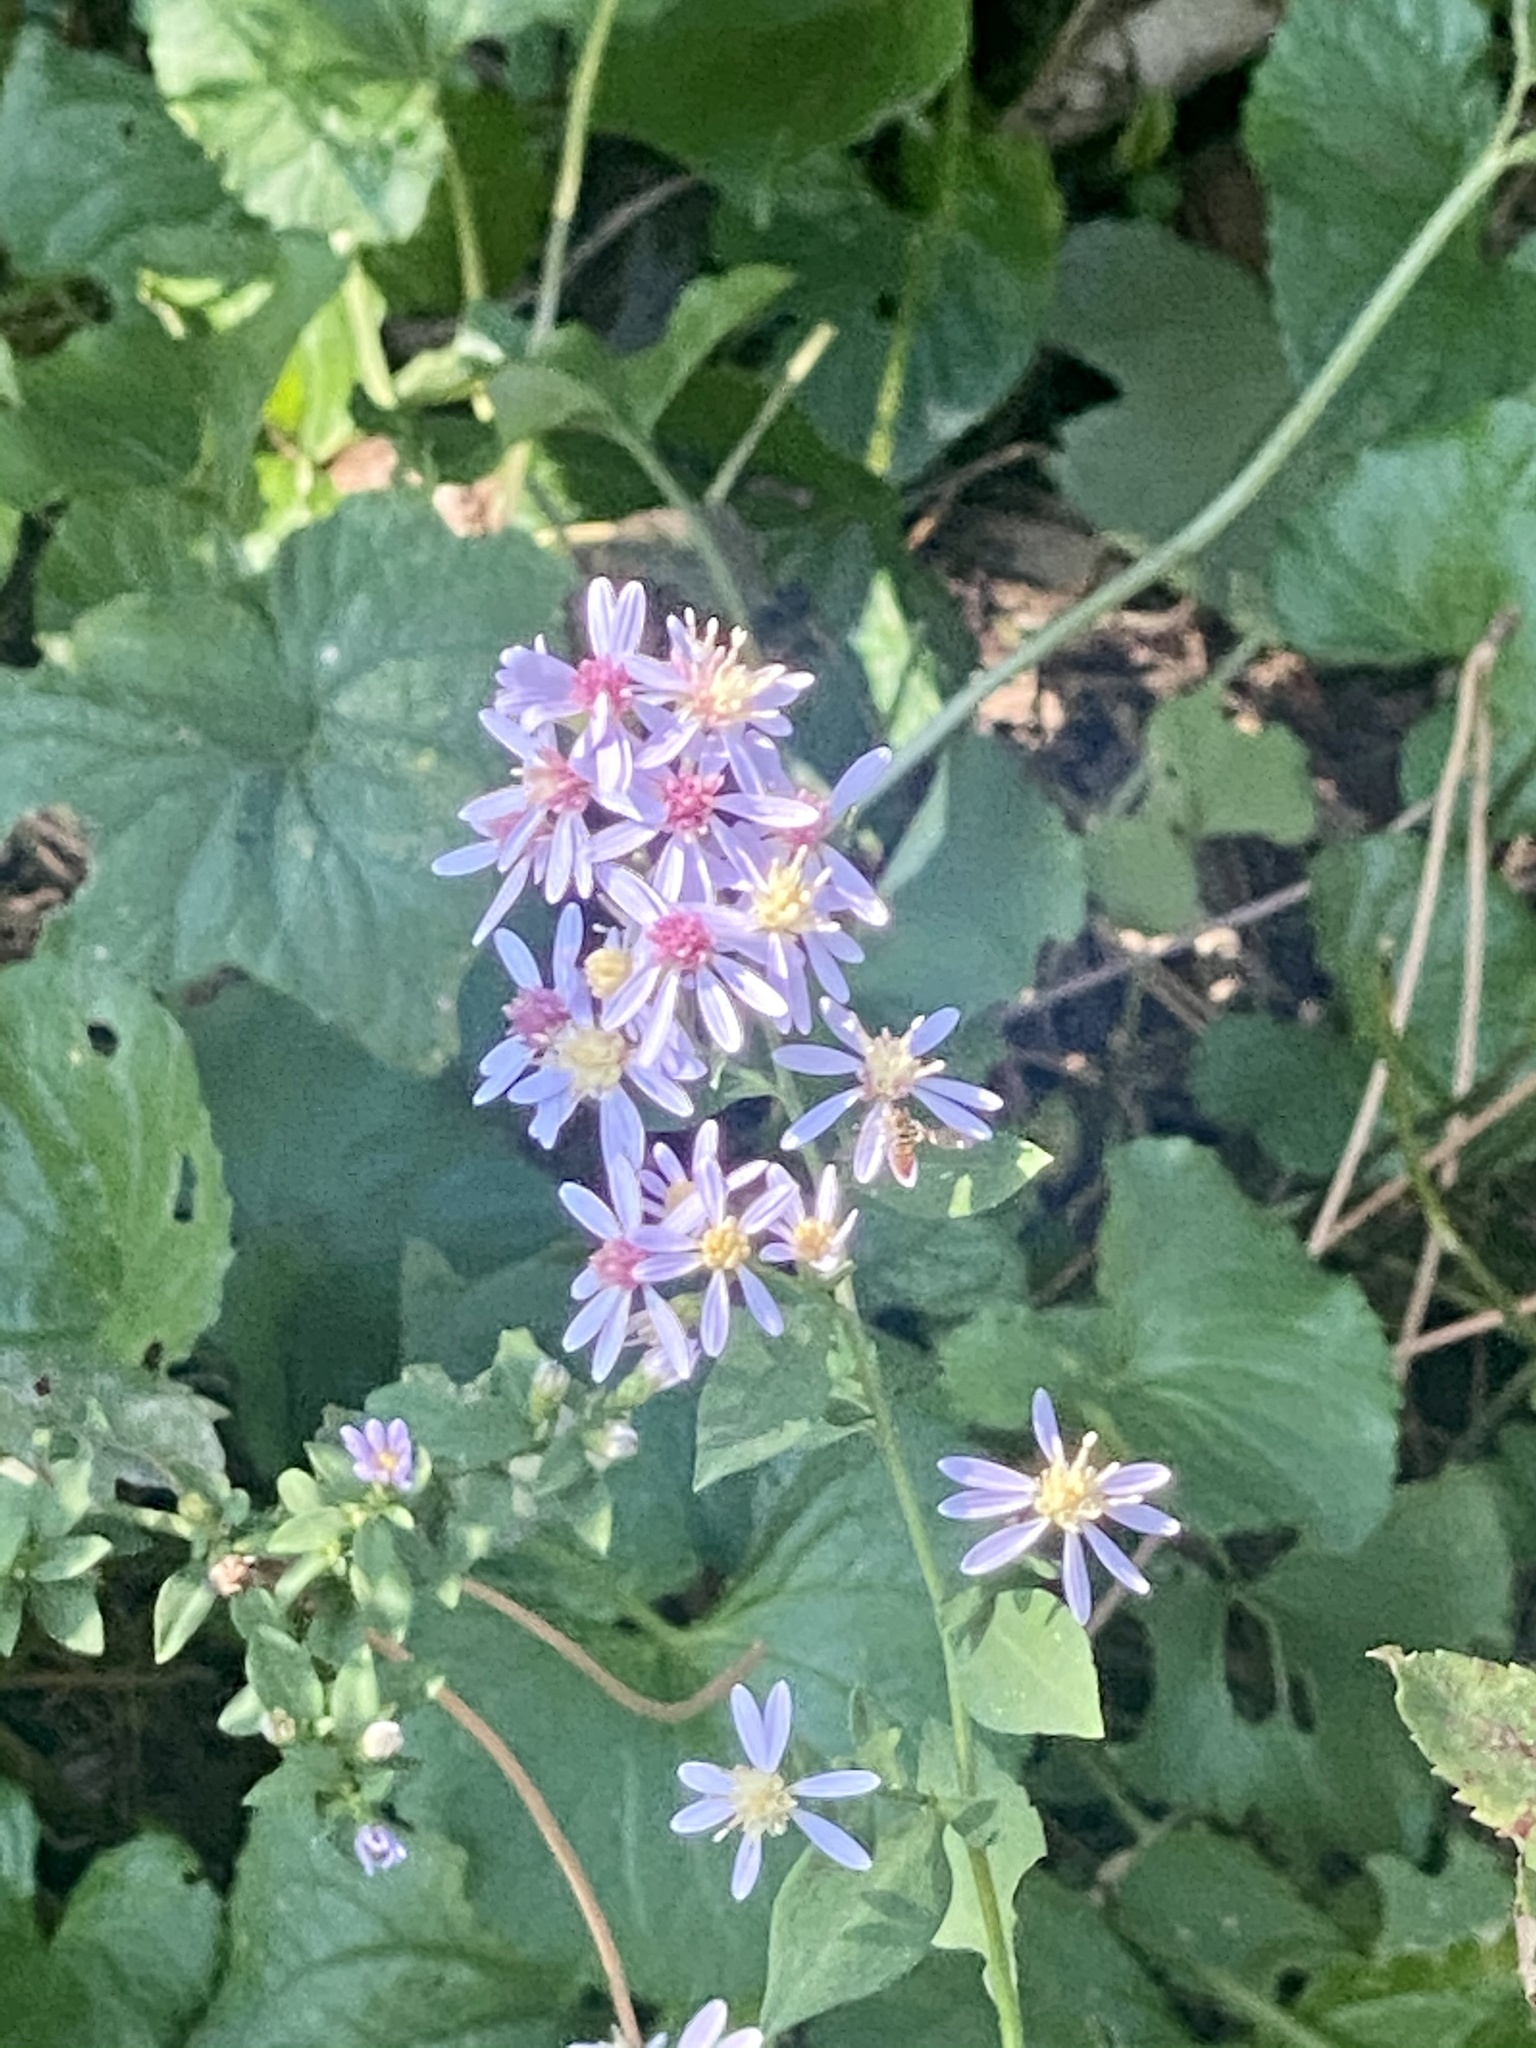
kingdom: Plantae
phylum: Tracheophyta
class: Magnoliopsida
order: Asterales
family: Asteraceae
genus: Symphyotrichum
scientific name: Symphyotrichum cordifolium
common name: Beeweed
